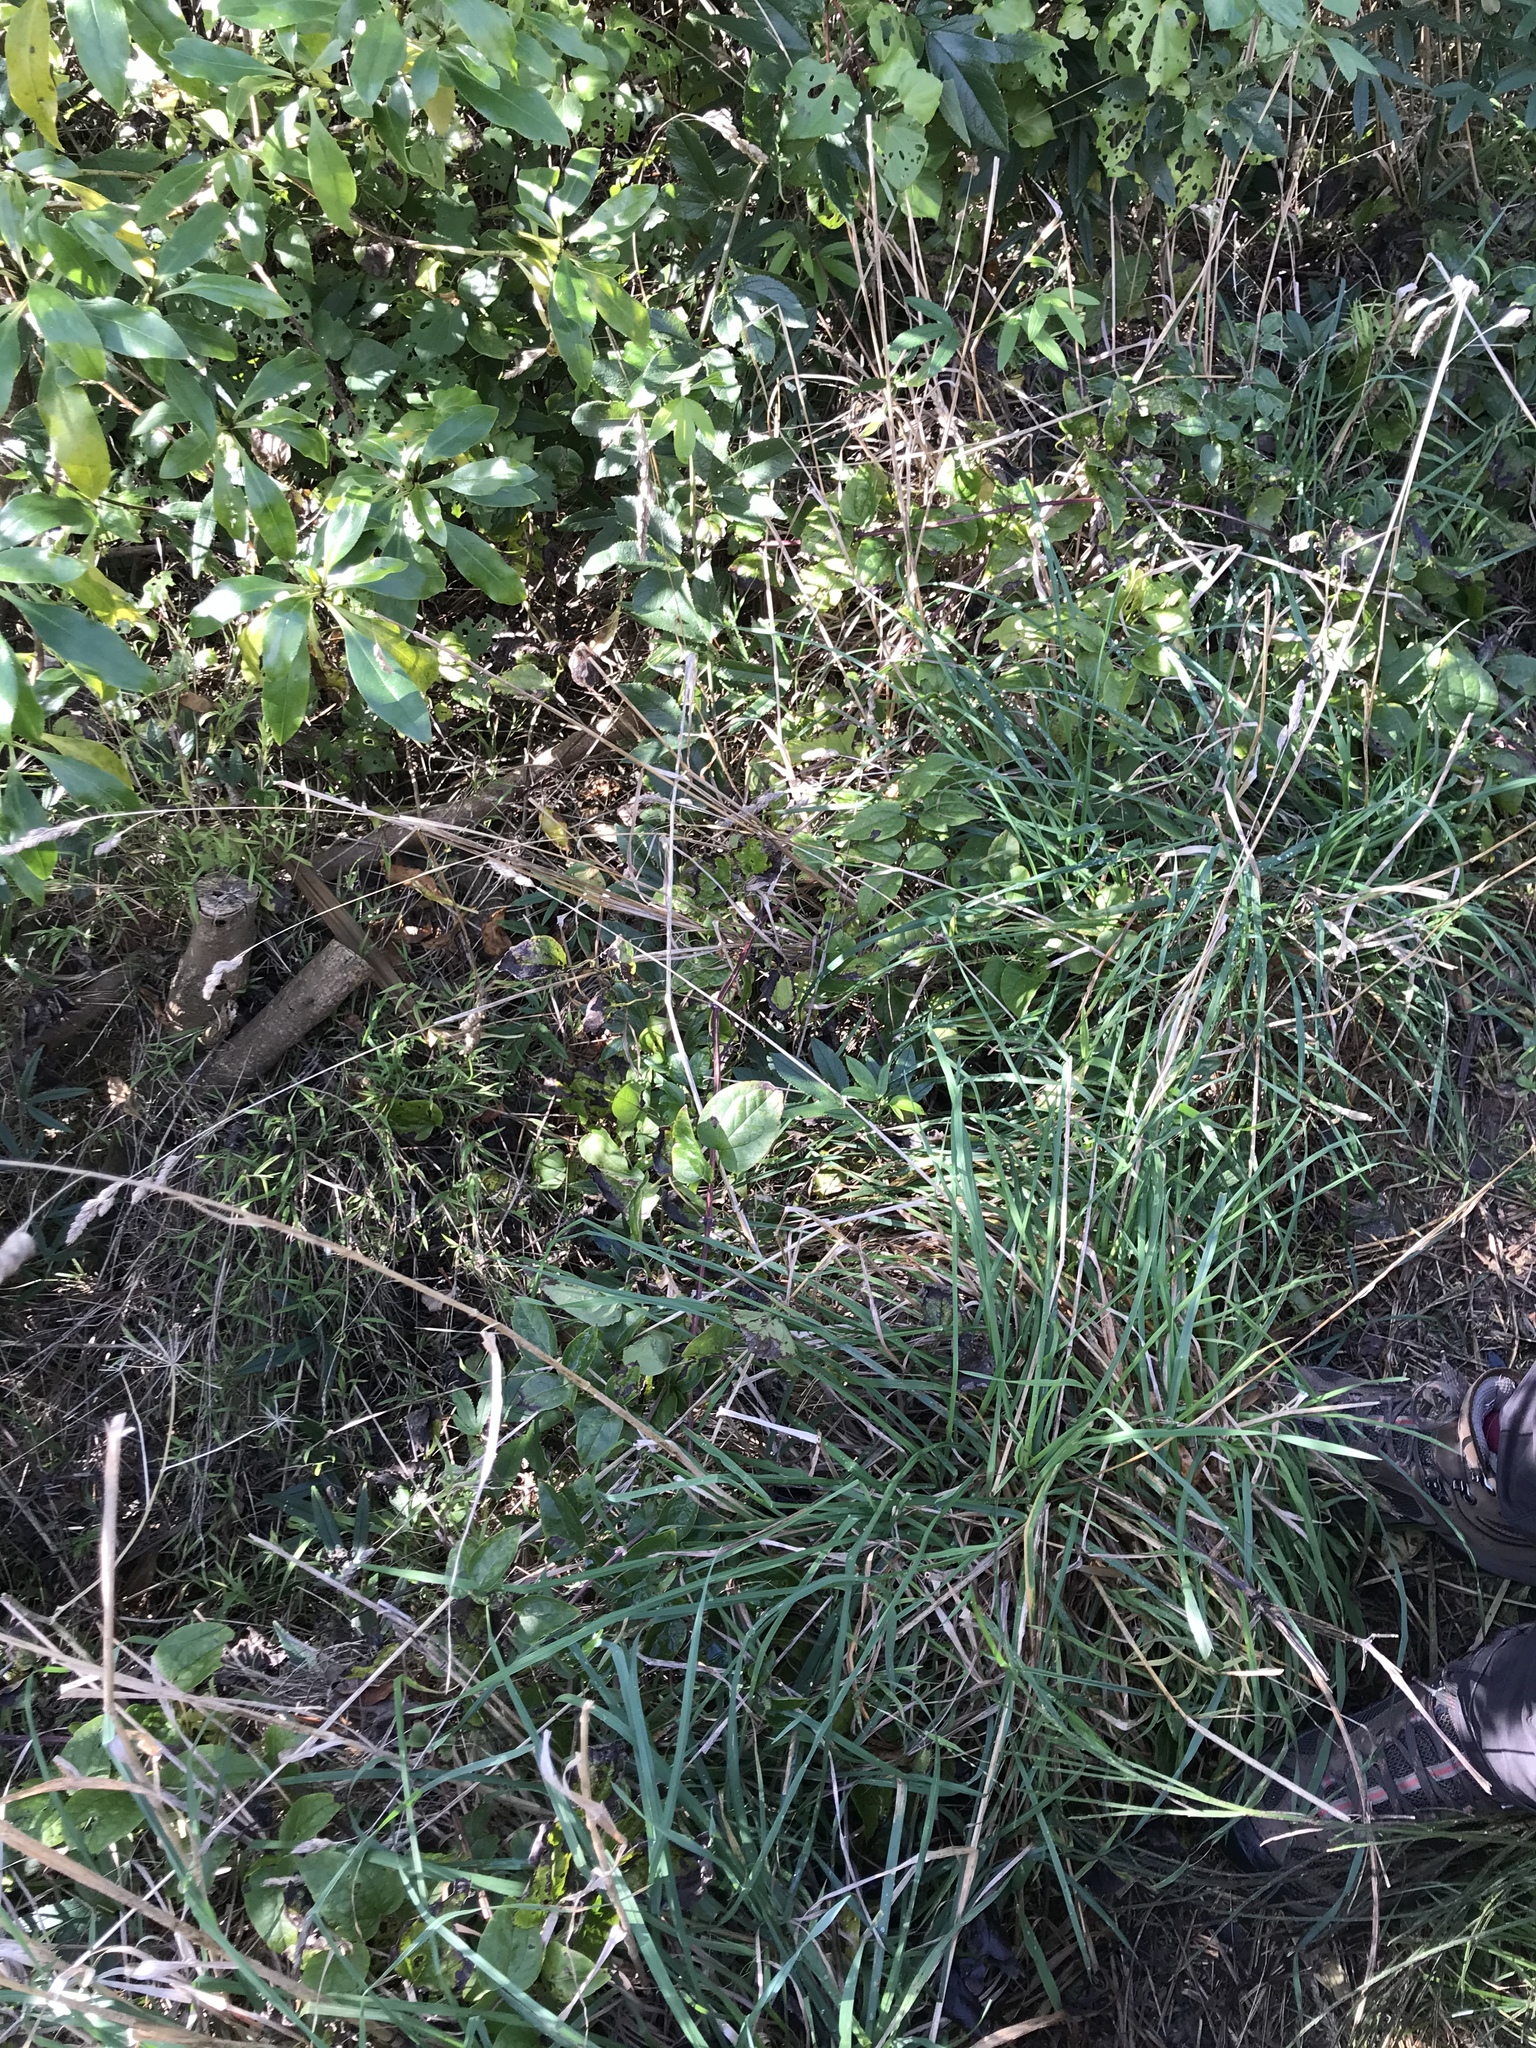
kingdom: Plantae
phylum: Tracheophyta
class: Magnoliopsida
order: Ranunculales
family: Ranunculaceae
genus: Clematis
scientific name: Clematis vitalba
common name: Evergreen clematis
